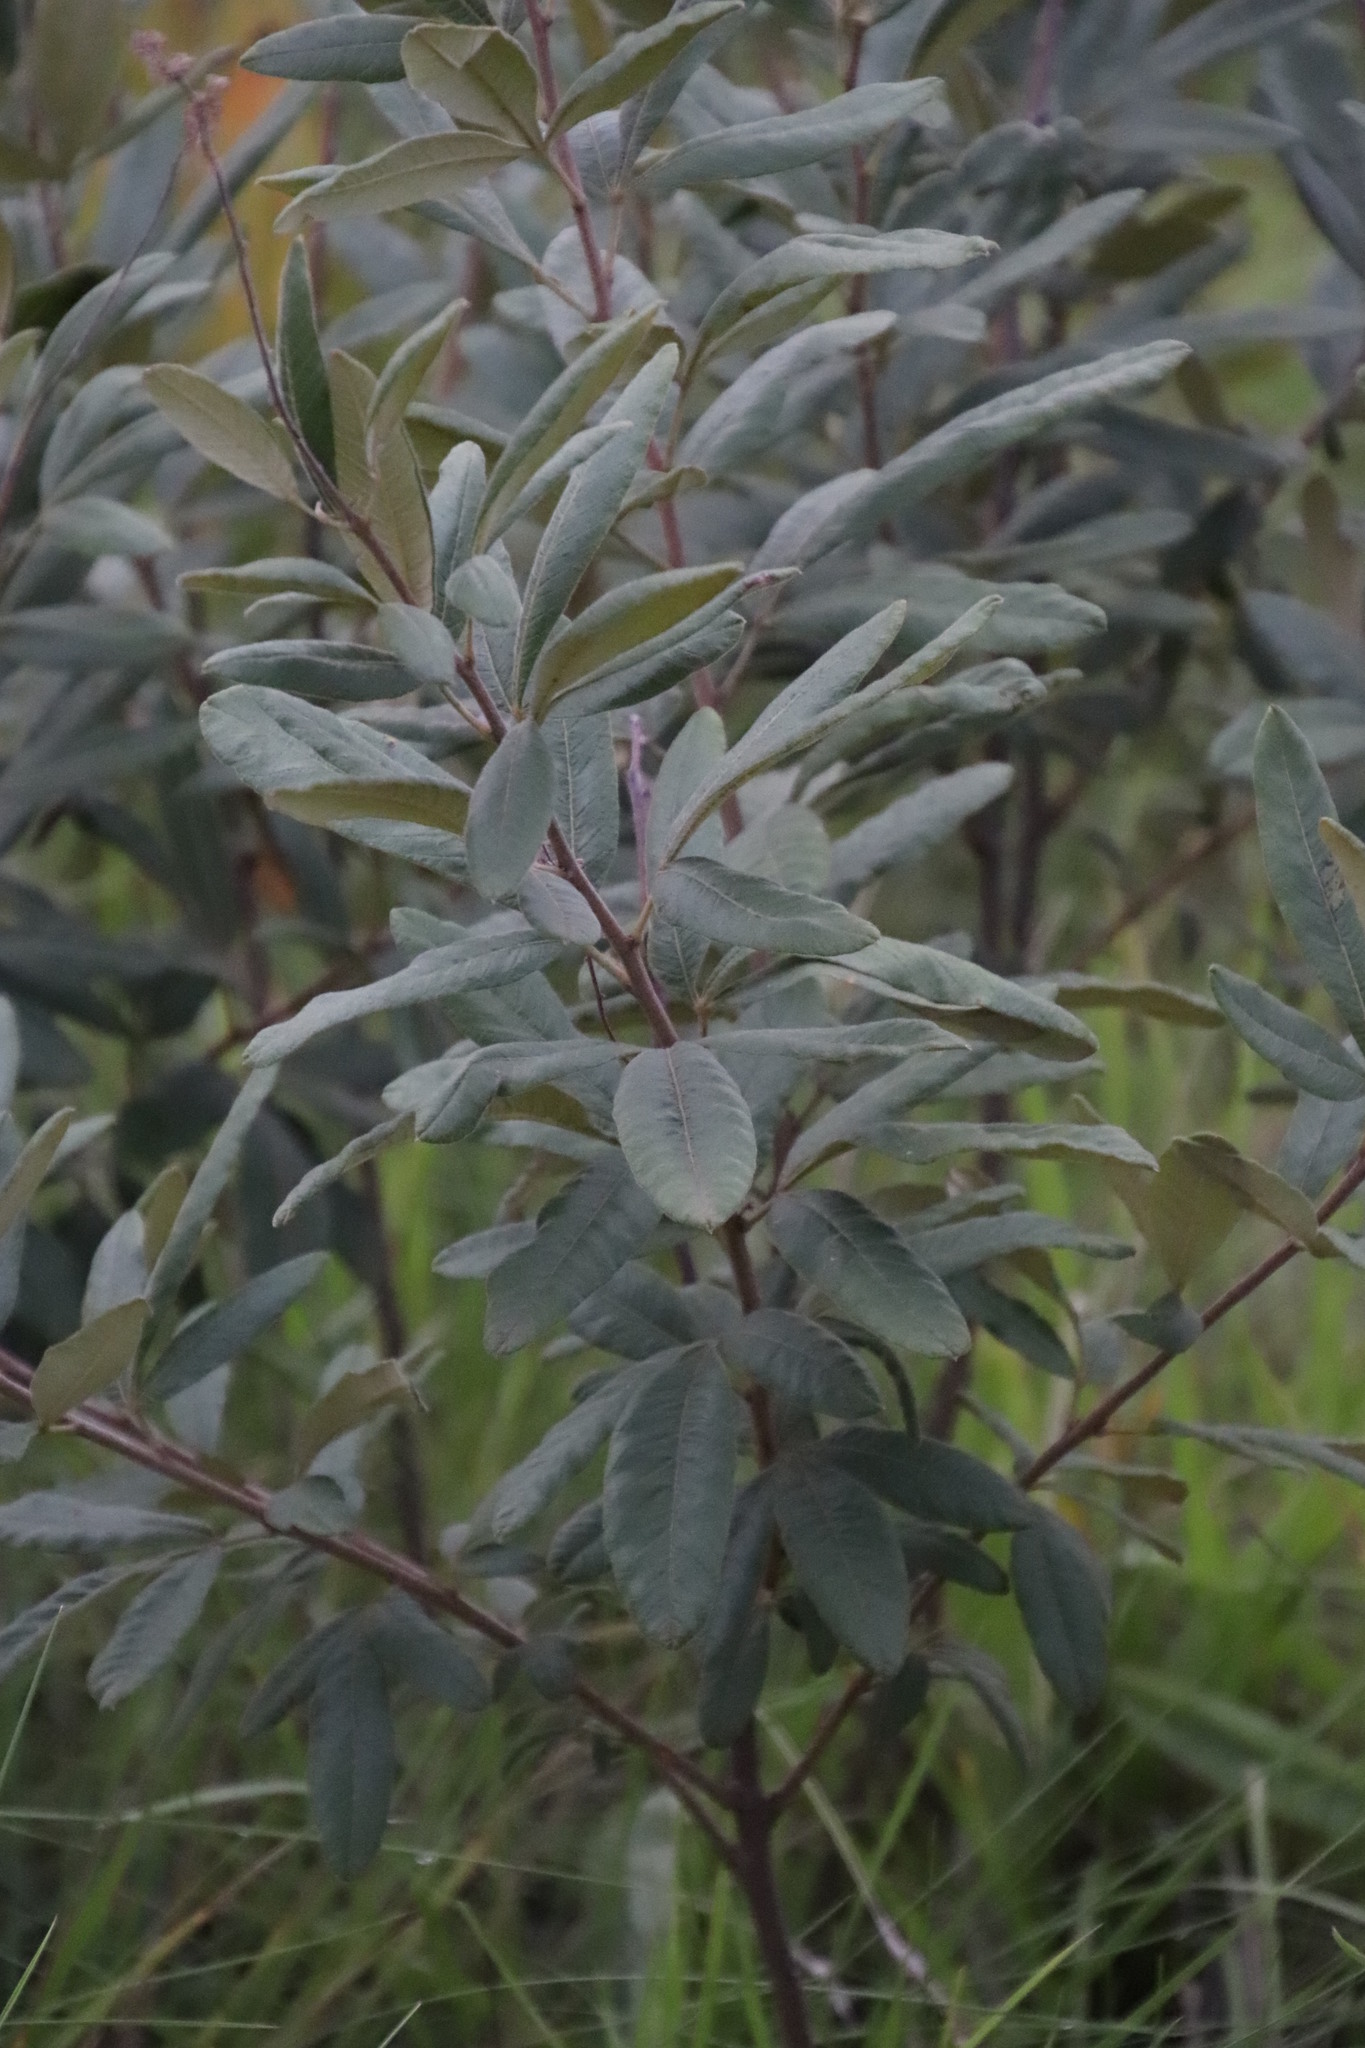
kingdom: Plantae
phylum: Tracheophyta
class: Magnoliopsida
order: Sapindales
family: Anacardiaceae
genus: Searsia
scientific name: Searsia discolor
